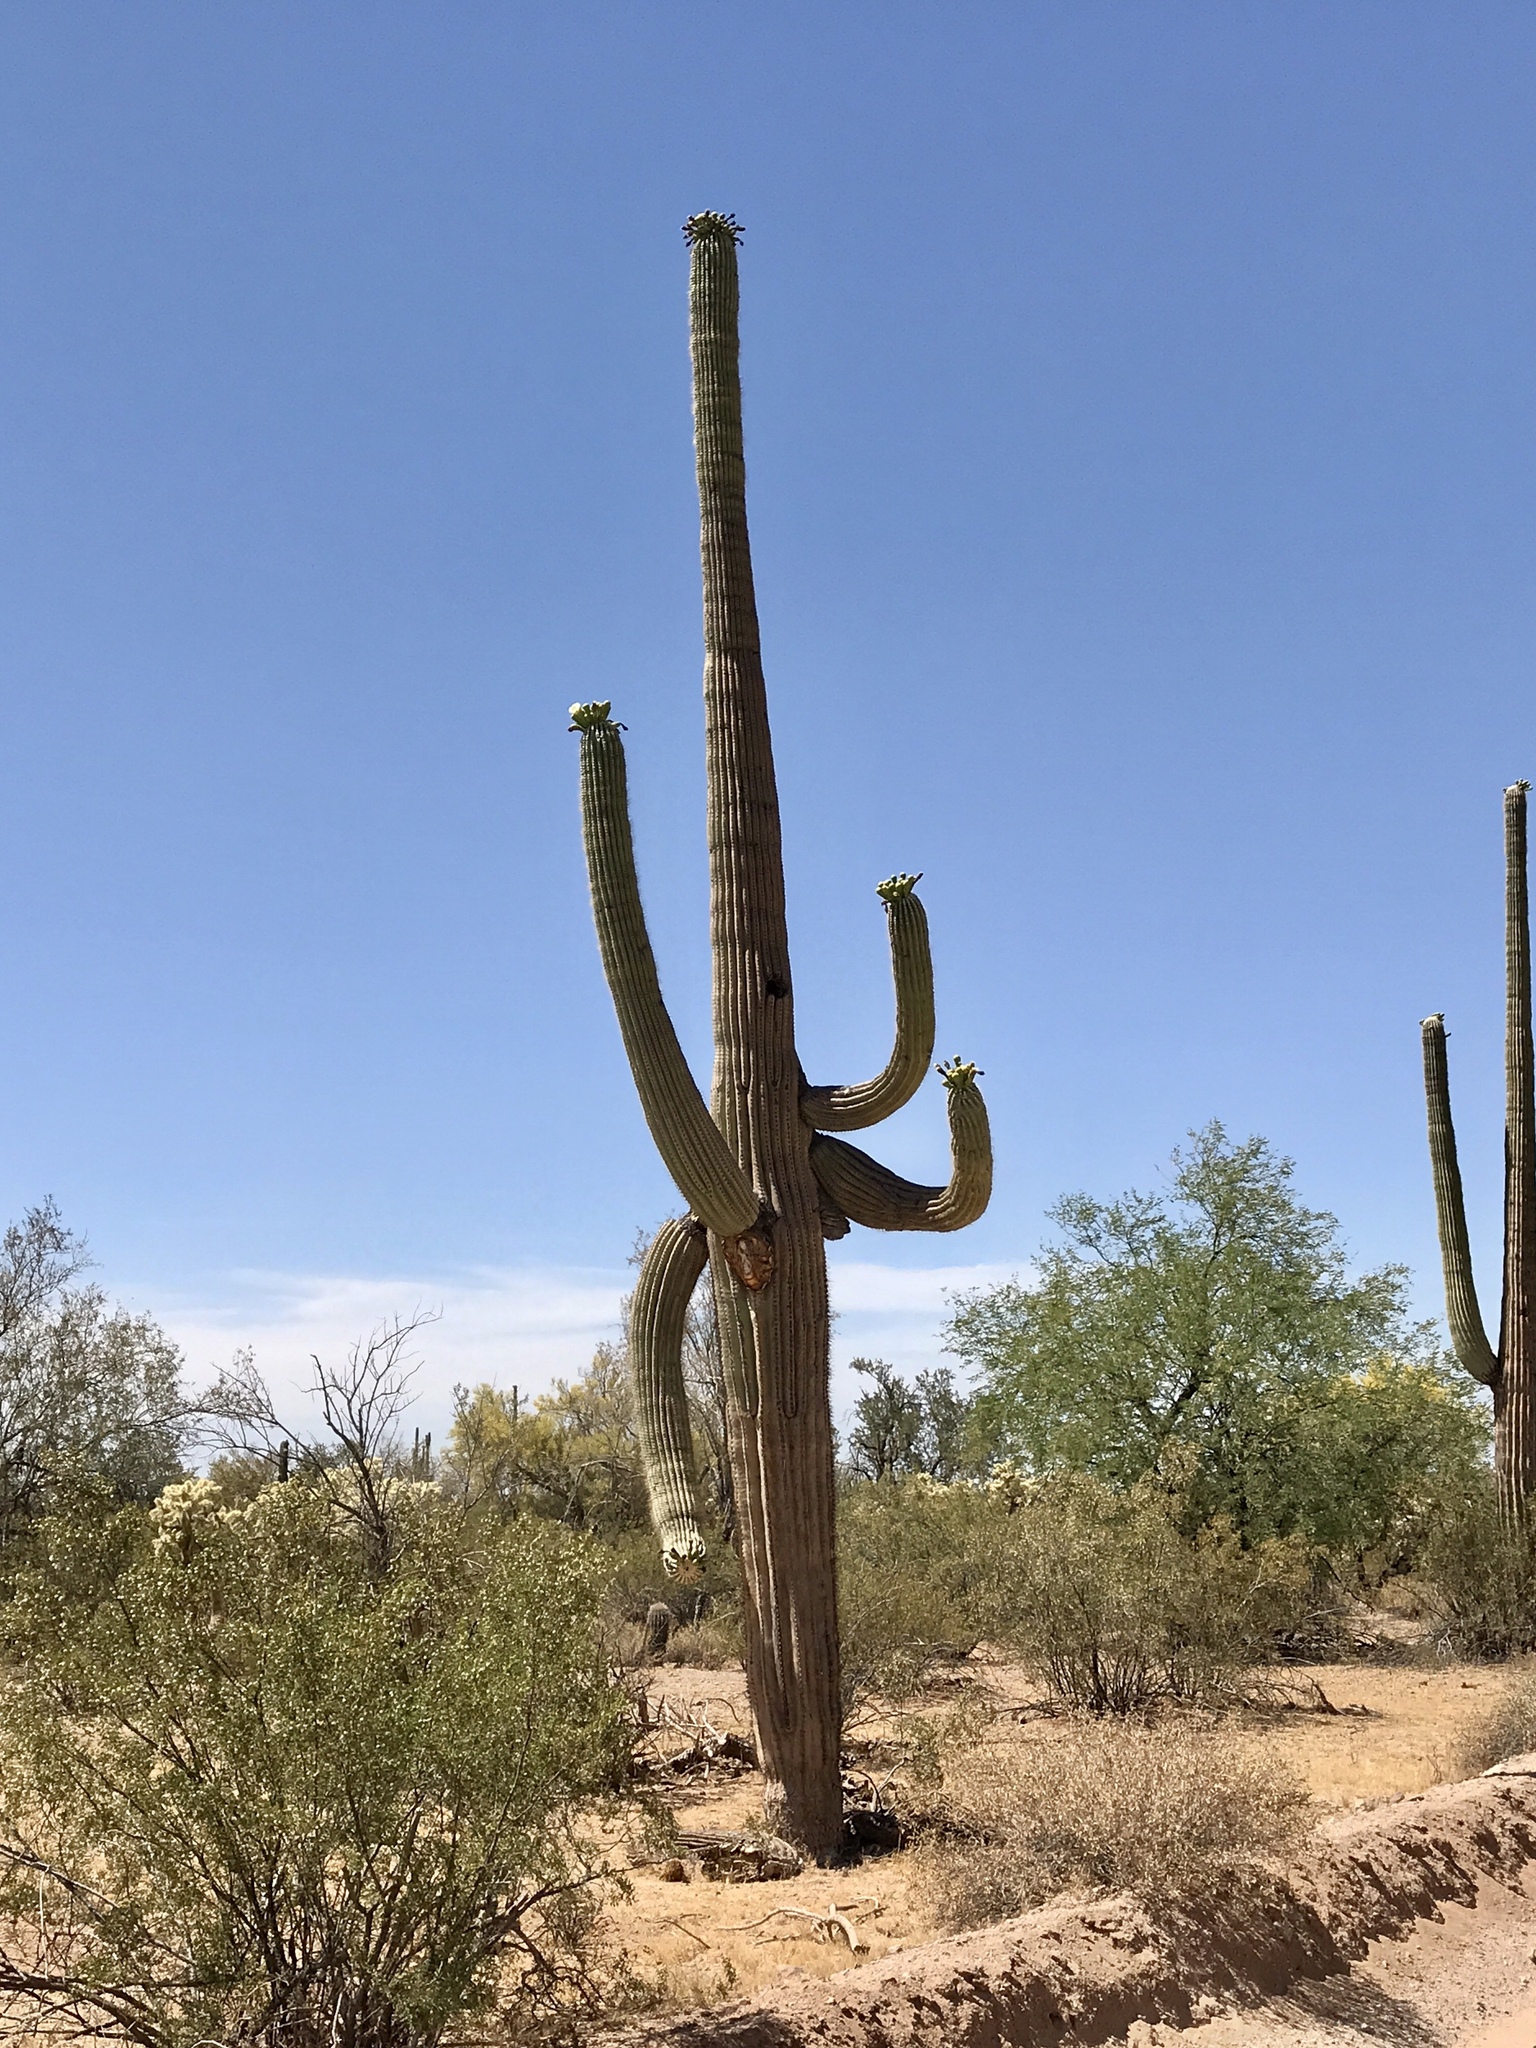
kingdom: Plantae
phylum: Tracheophyta
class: Magnoliopsida
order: Zygophyllales
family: Zygophyllaceae
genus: Larrea
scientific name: Larrea tridentata
